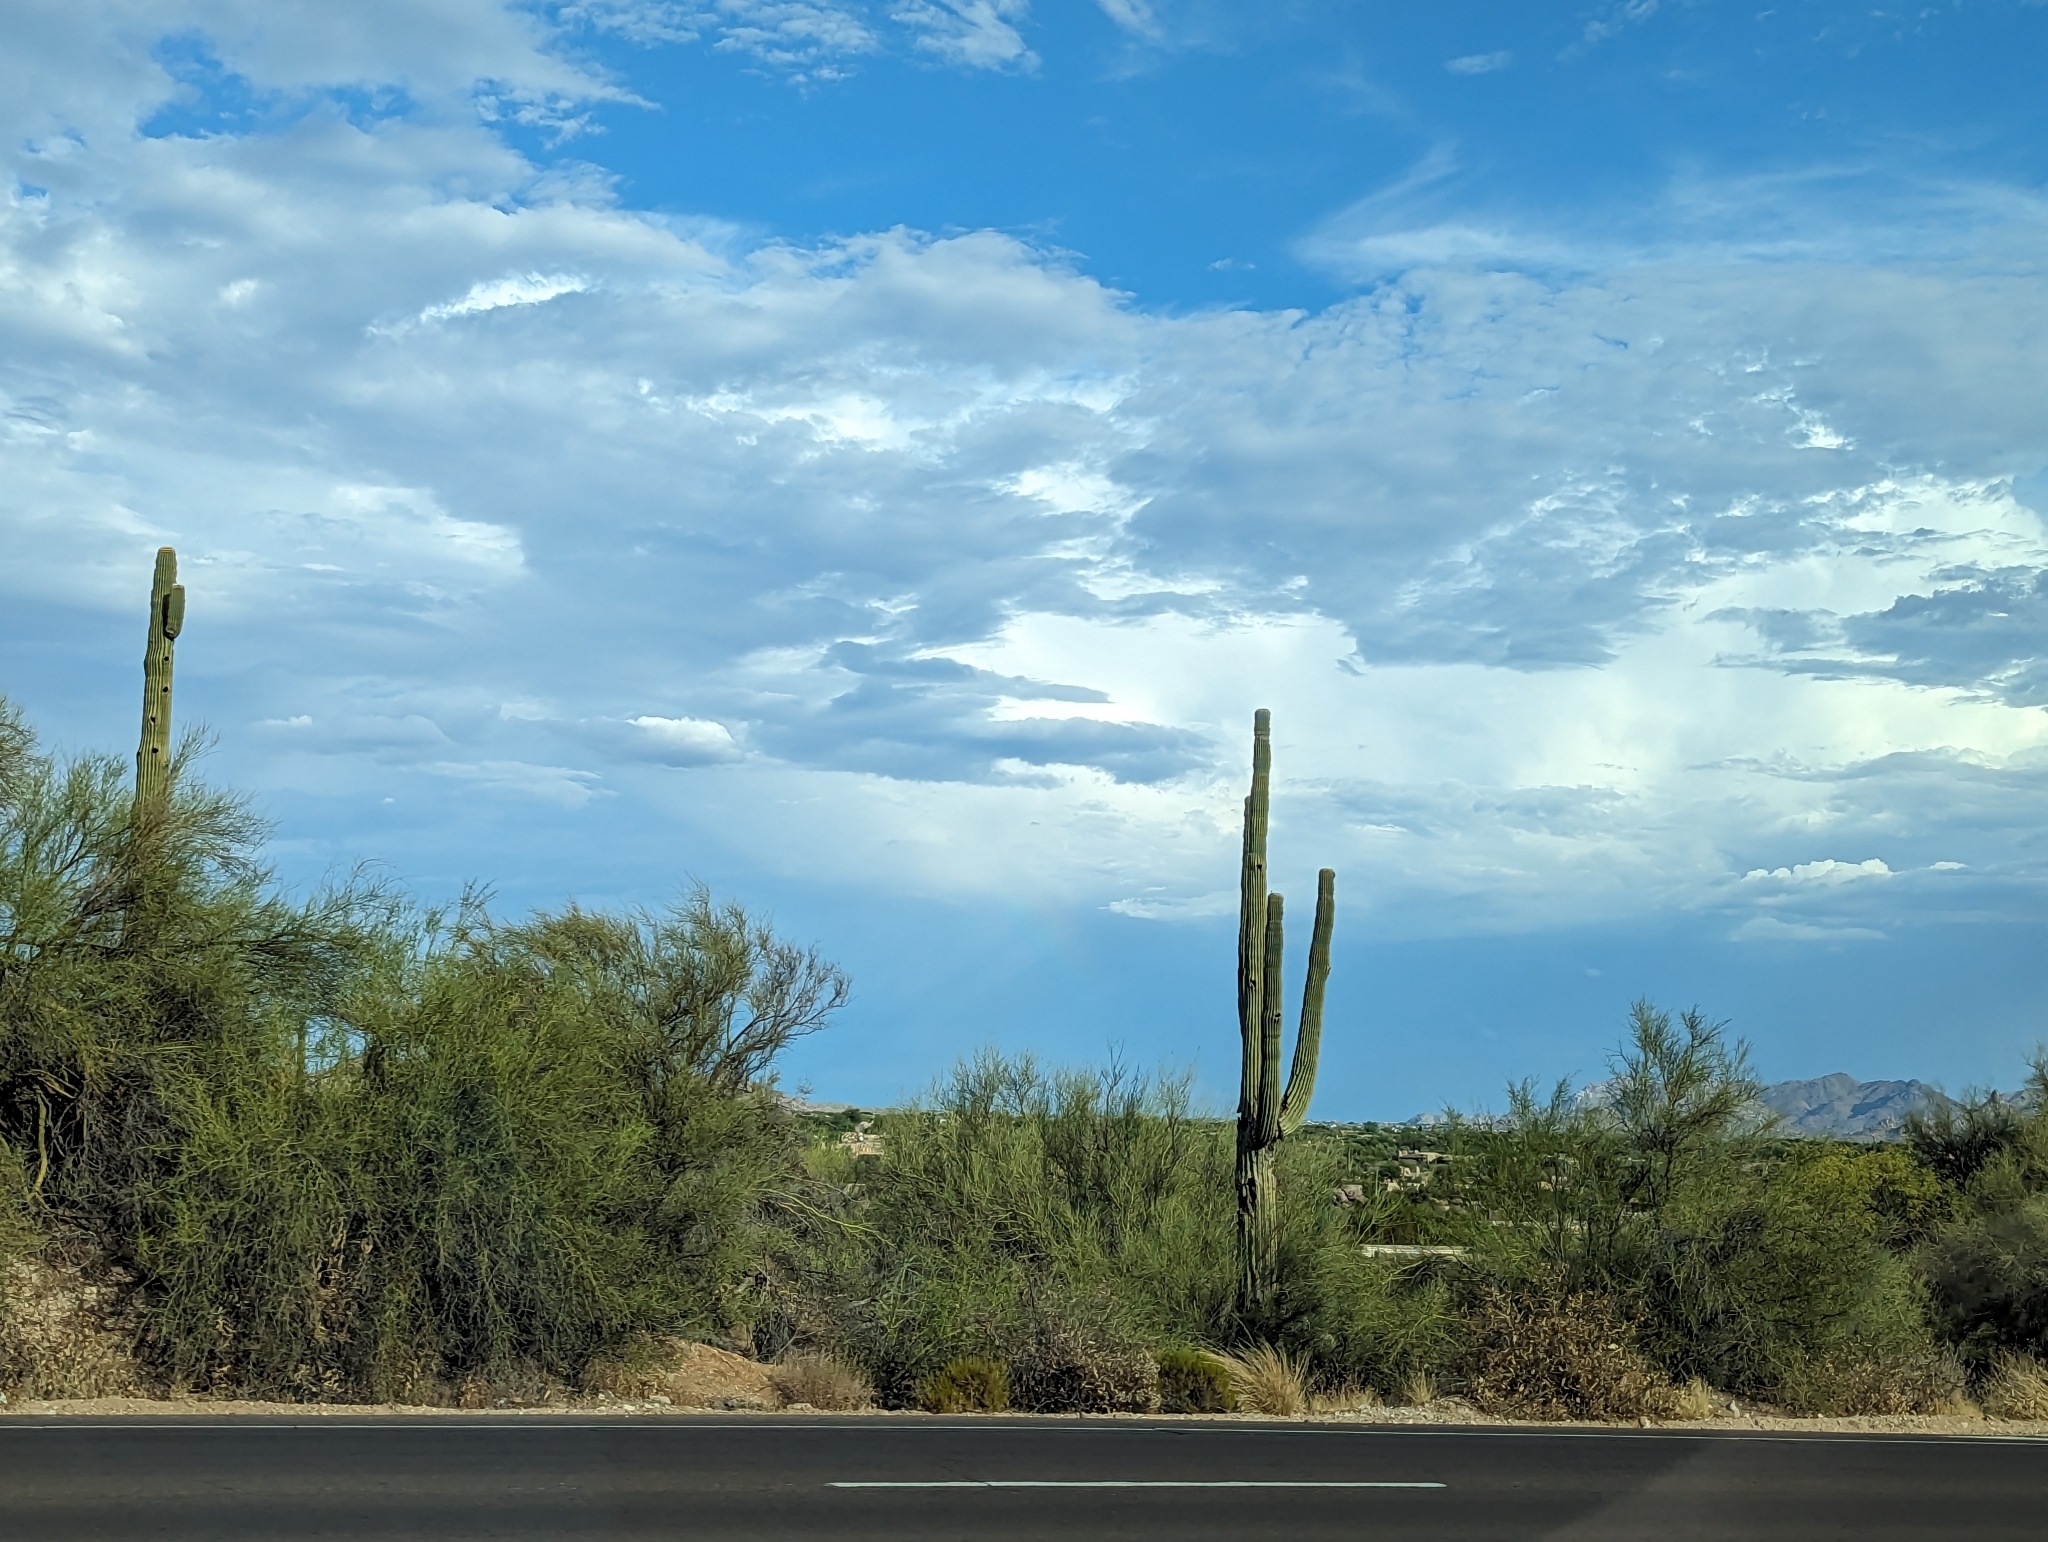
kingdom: Plantae
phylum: Tracheophyta
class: Magnoliopsida
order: Caryophyllales
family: Cactaceae
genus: Carnegiea
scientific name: Carnegiea gigantea
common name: Saguaro
